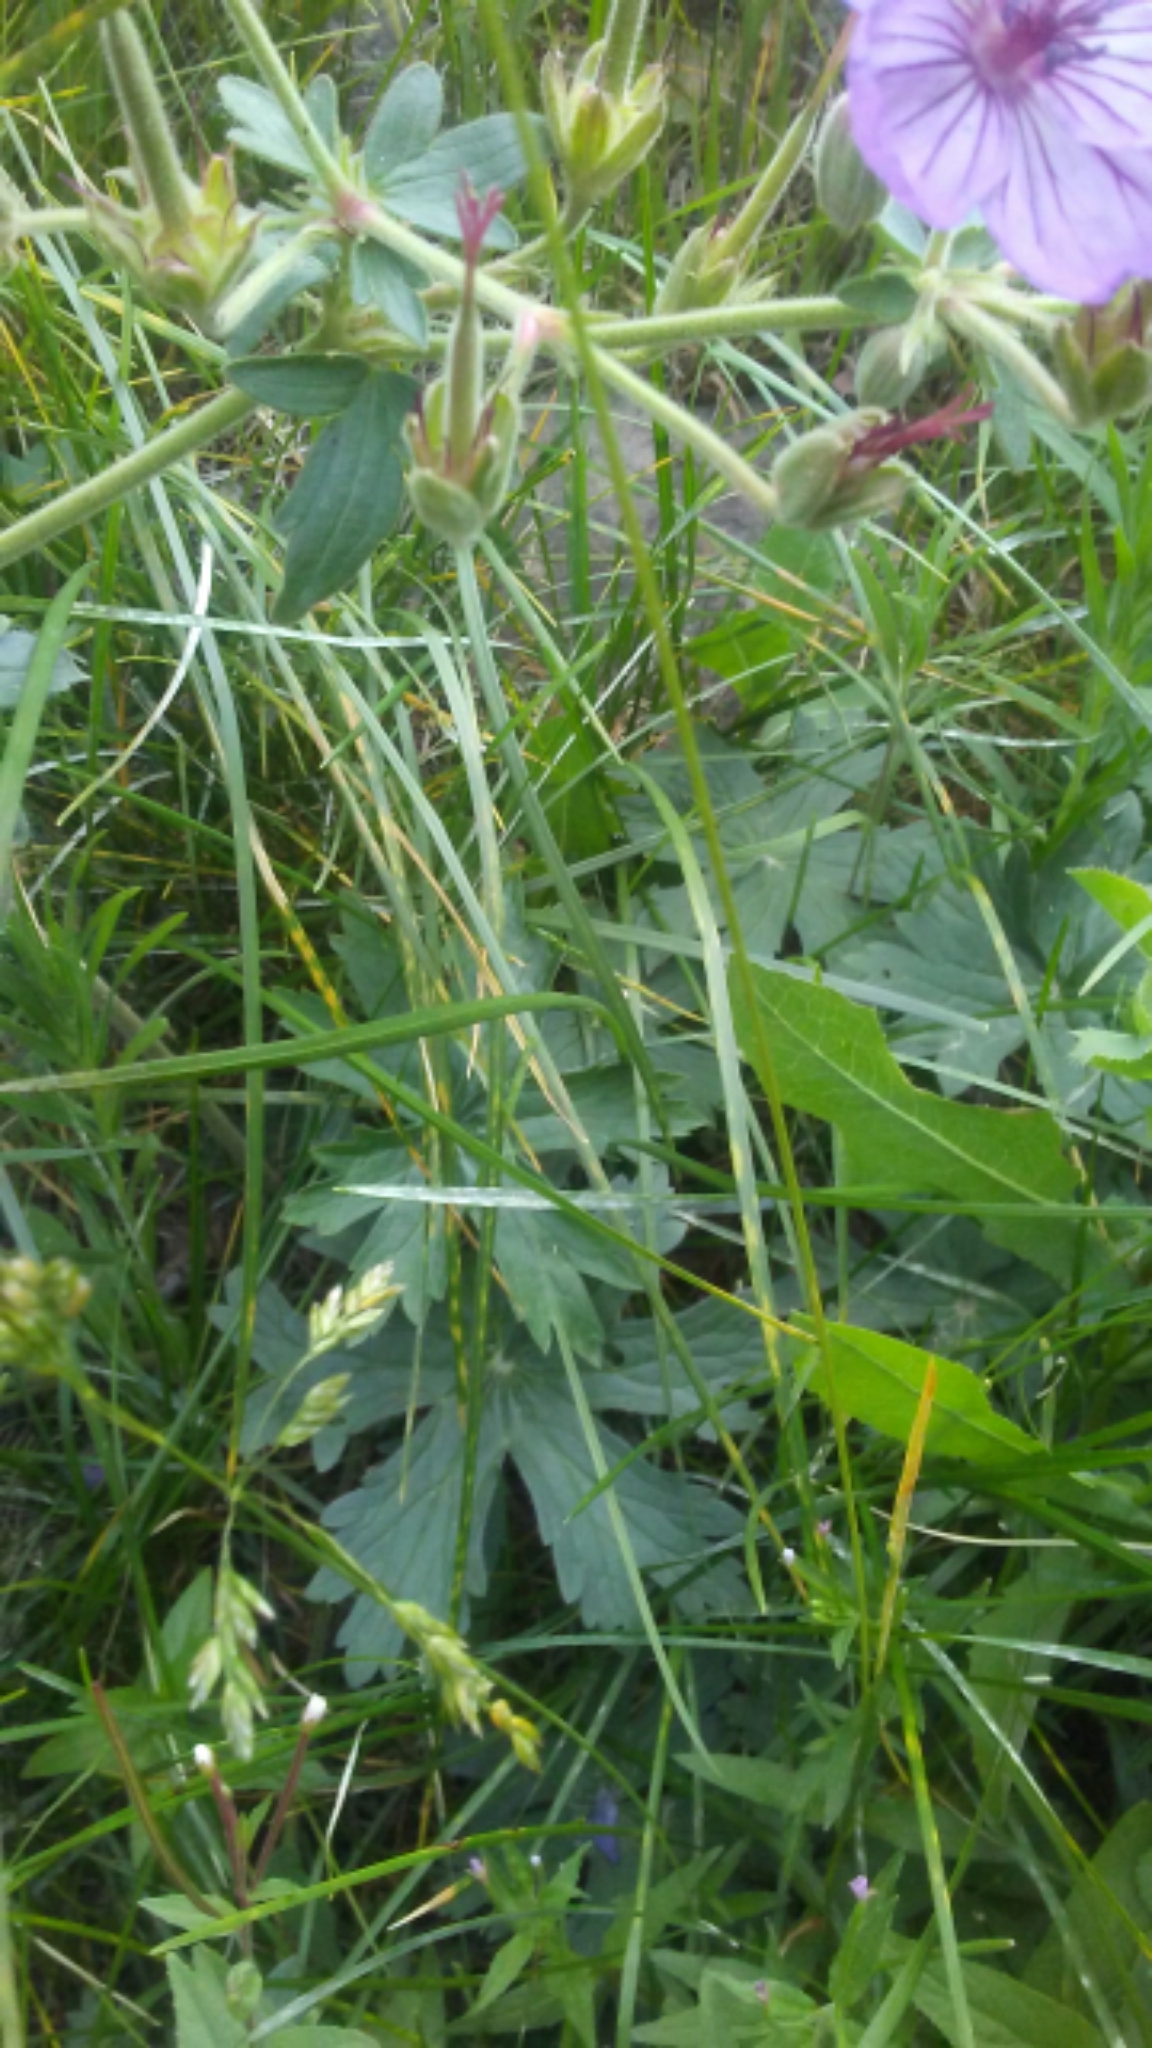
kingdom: Plantae
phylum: Tracheophyta
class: Magnoliopsida
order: Geraniales
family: Geraniaceae
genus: Geranium
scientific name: Geranium viscosissimum
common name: Purple geranium
